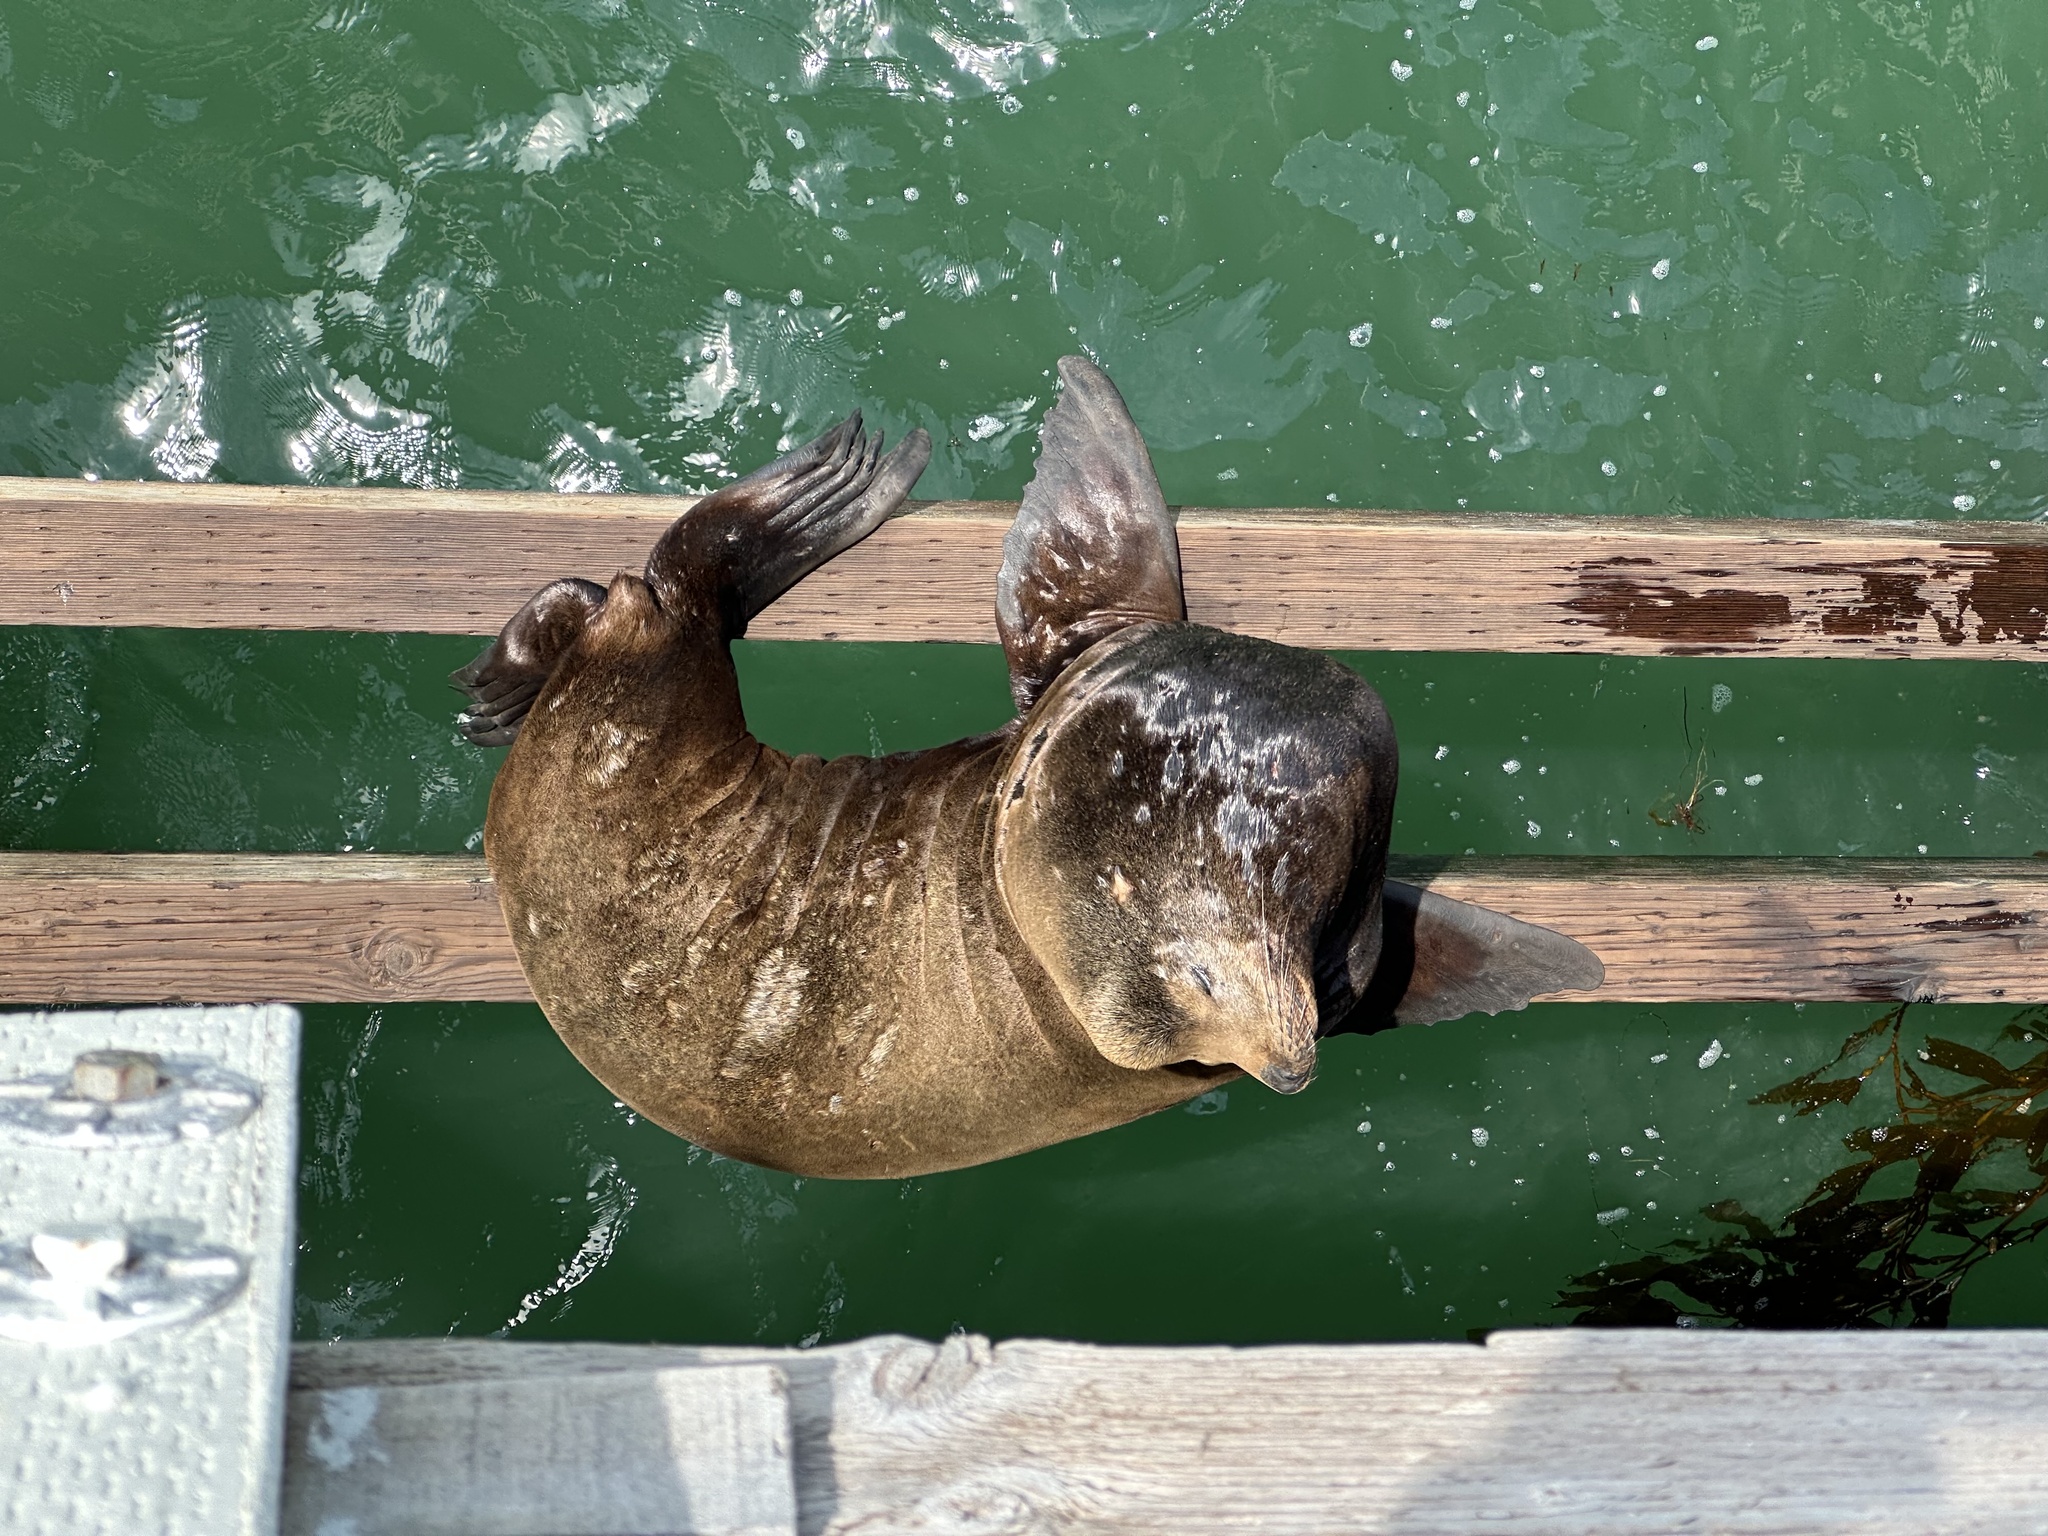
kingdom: Animalia
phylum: Chordata
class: Mammalia
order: Carnivora
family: Otariidae
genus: Zalophus
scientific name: Zalophus californianus
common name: California sea lion
